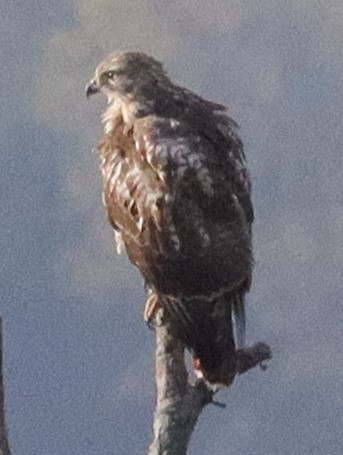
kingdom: Animalia
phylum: Chordata
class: Aves
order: Accipitriformes
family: Accipitridae
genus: Buteo
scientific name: Buteo jamaicensis
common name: Red-tailed hawk
